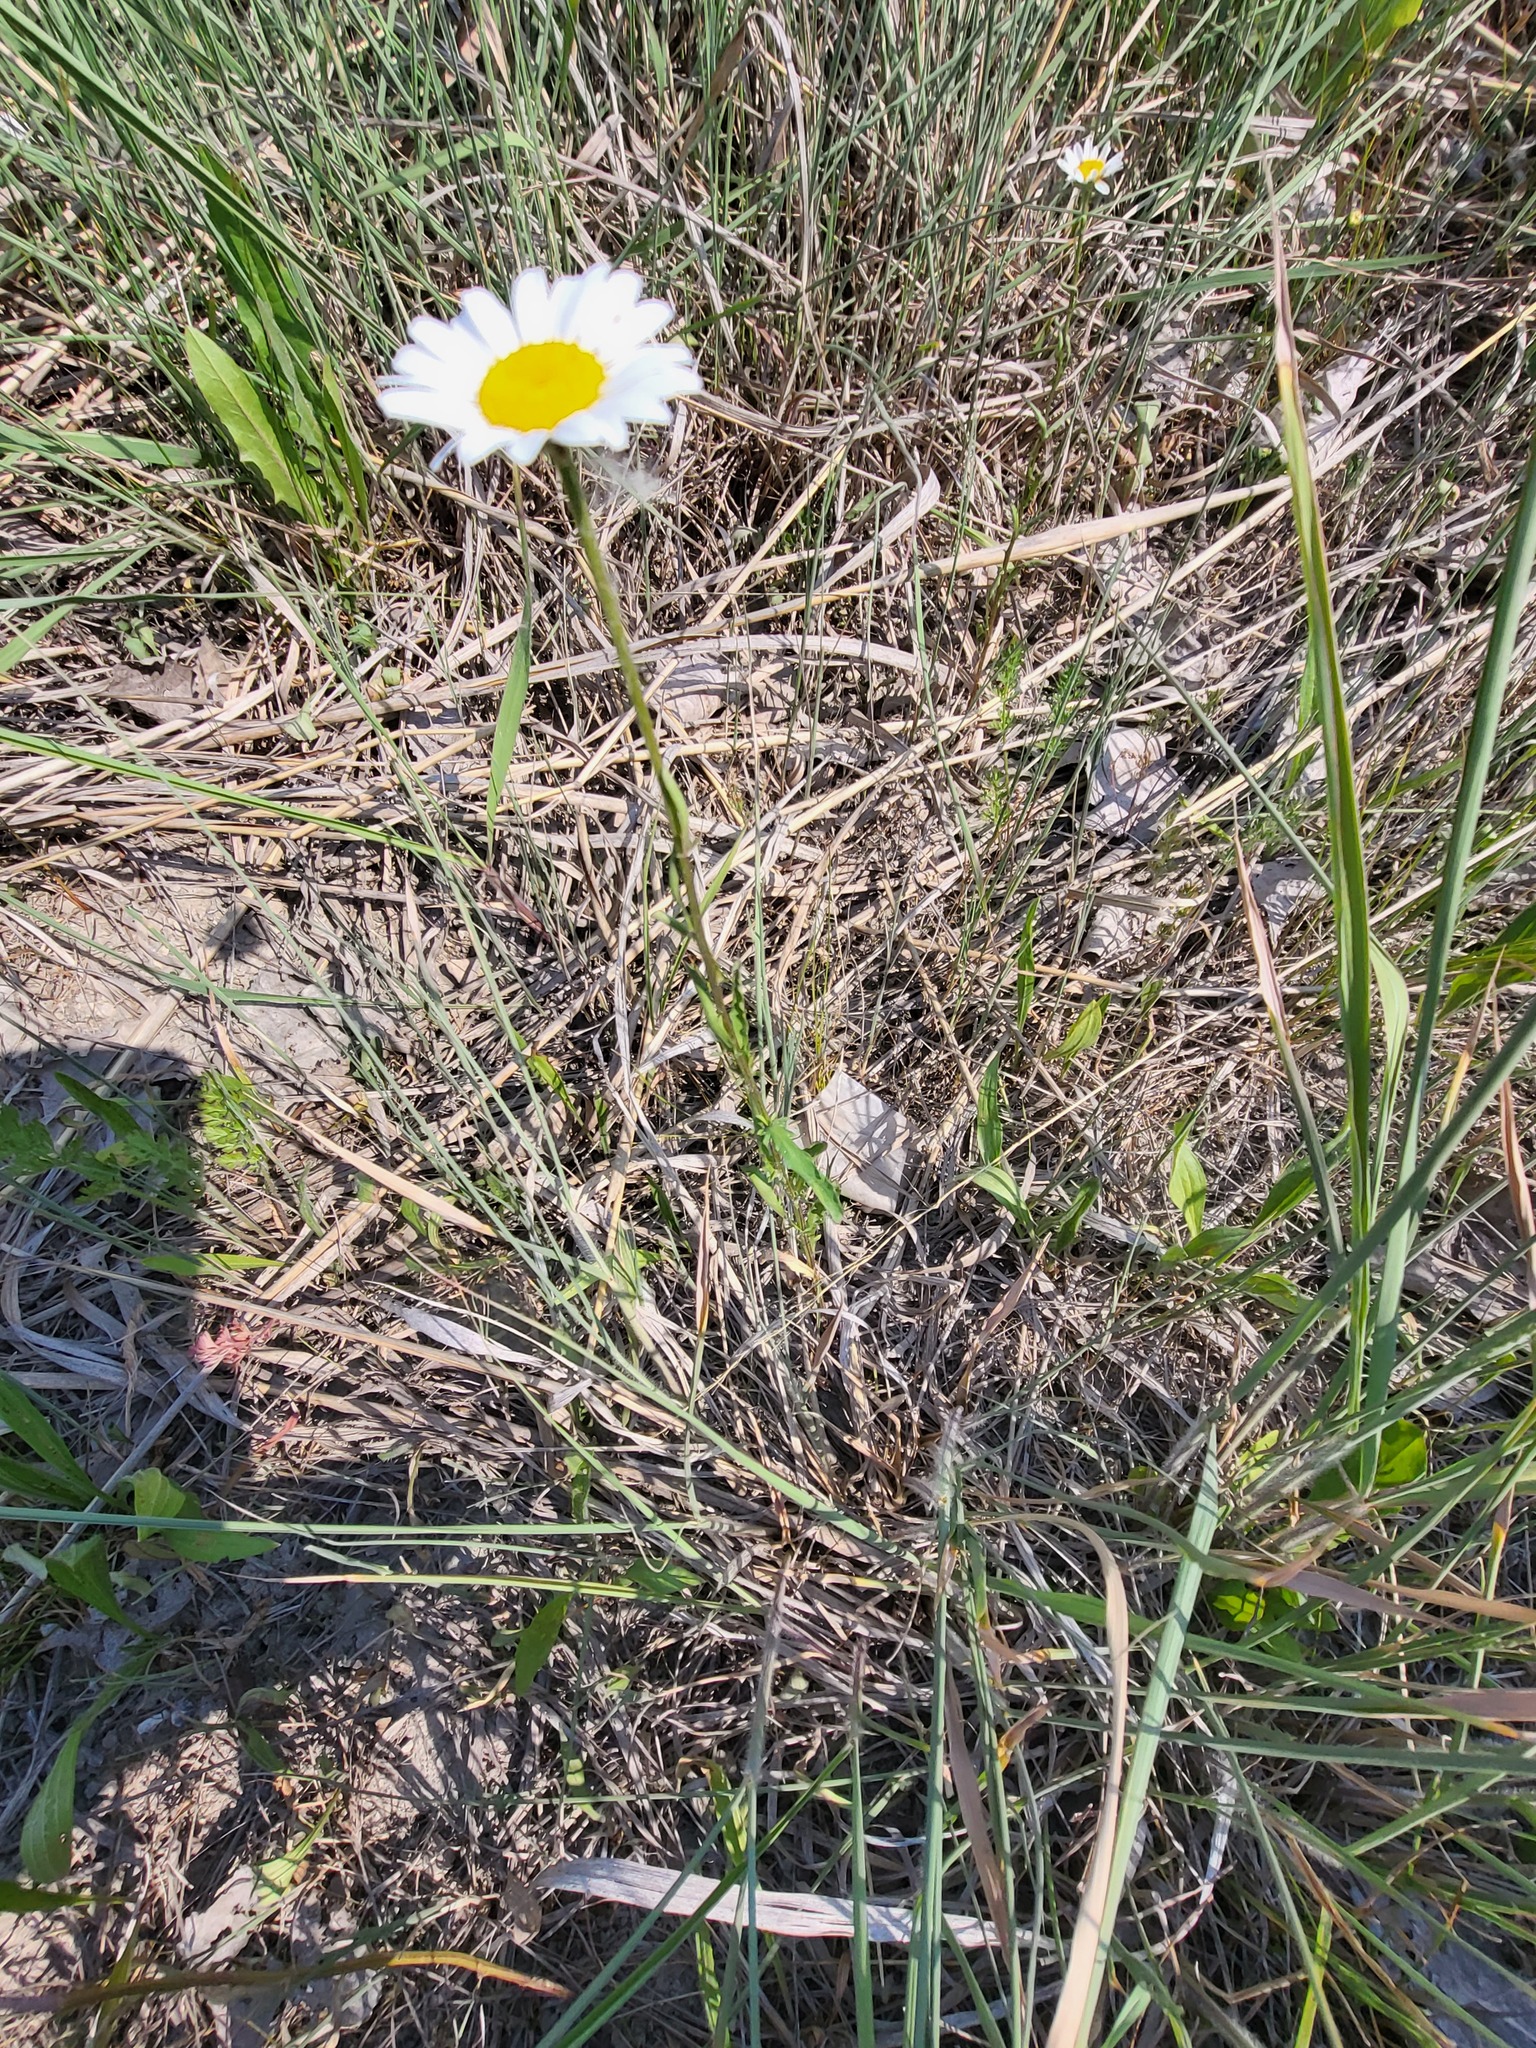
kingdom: Plantae
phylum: Tracheophyta
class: Magnoliopsida
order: Asterales
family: Asteraceae
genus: Leucanthemum
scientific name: Leucanthemum vulgare
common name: Oxeye daisy
